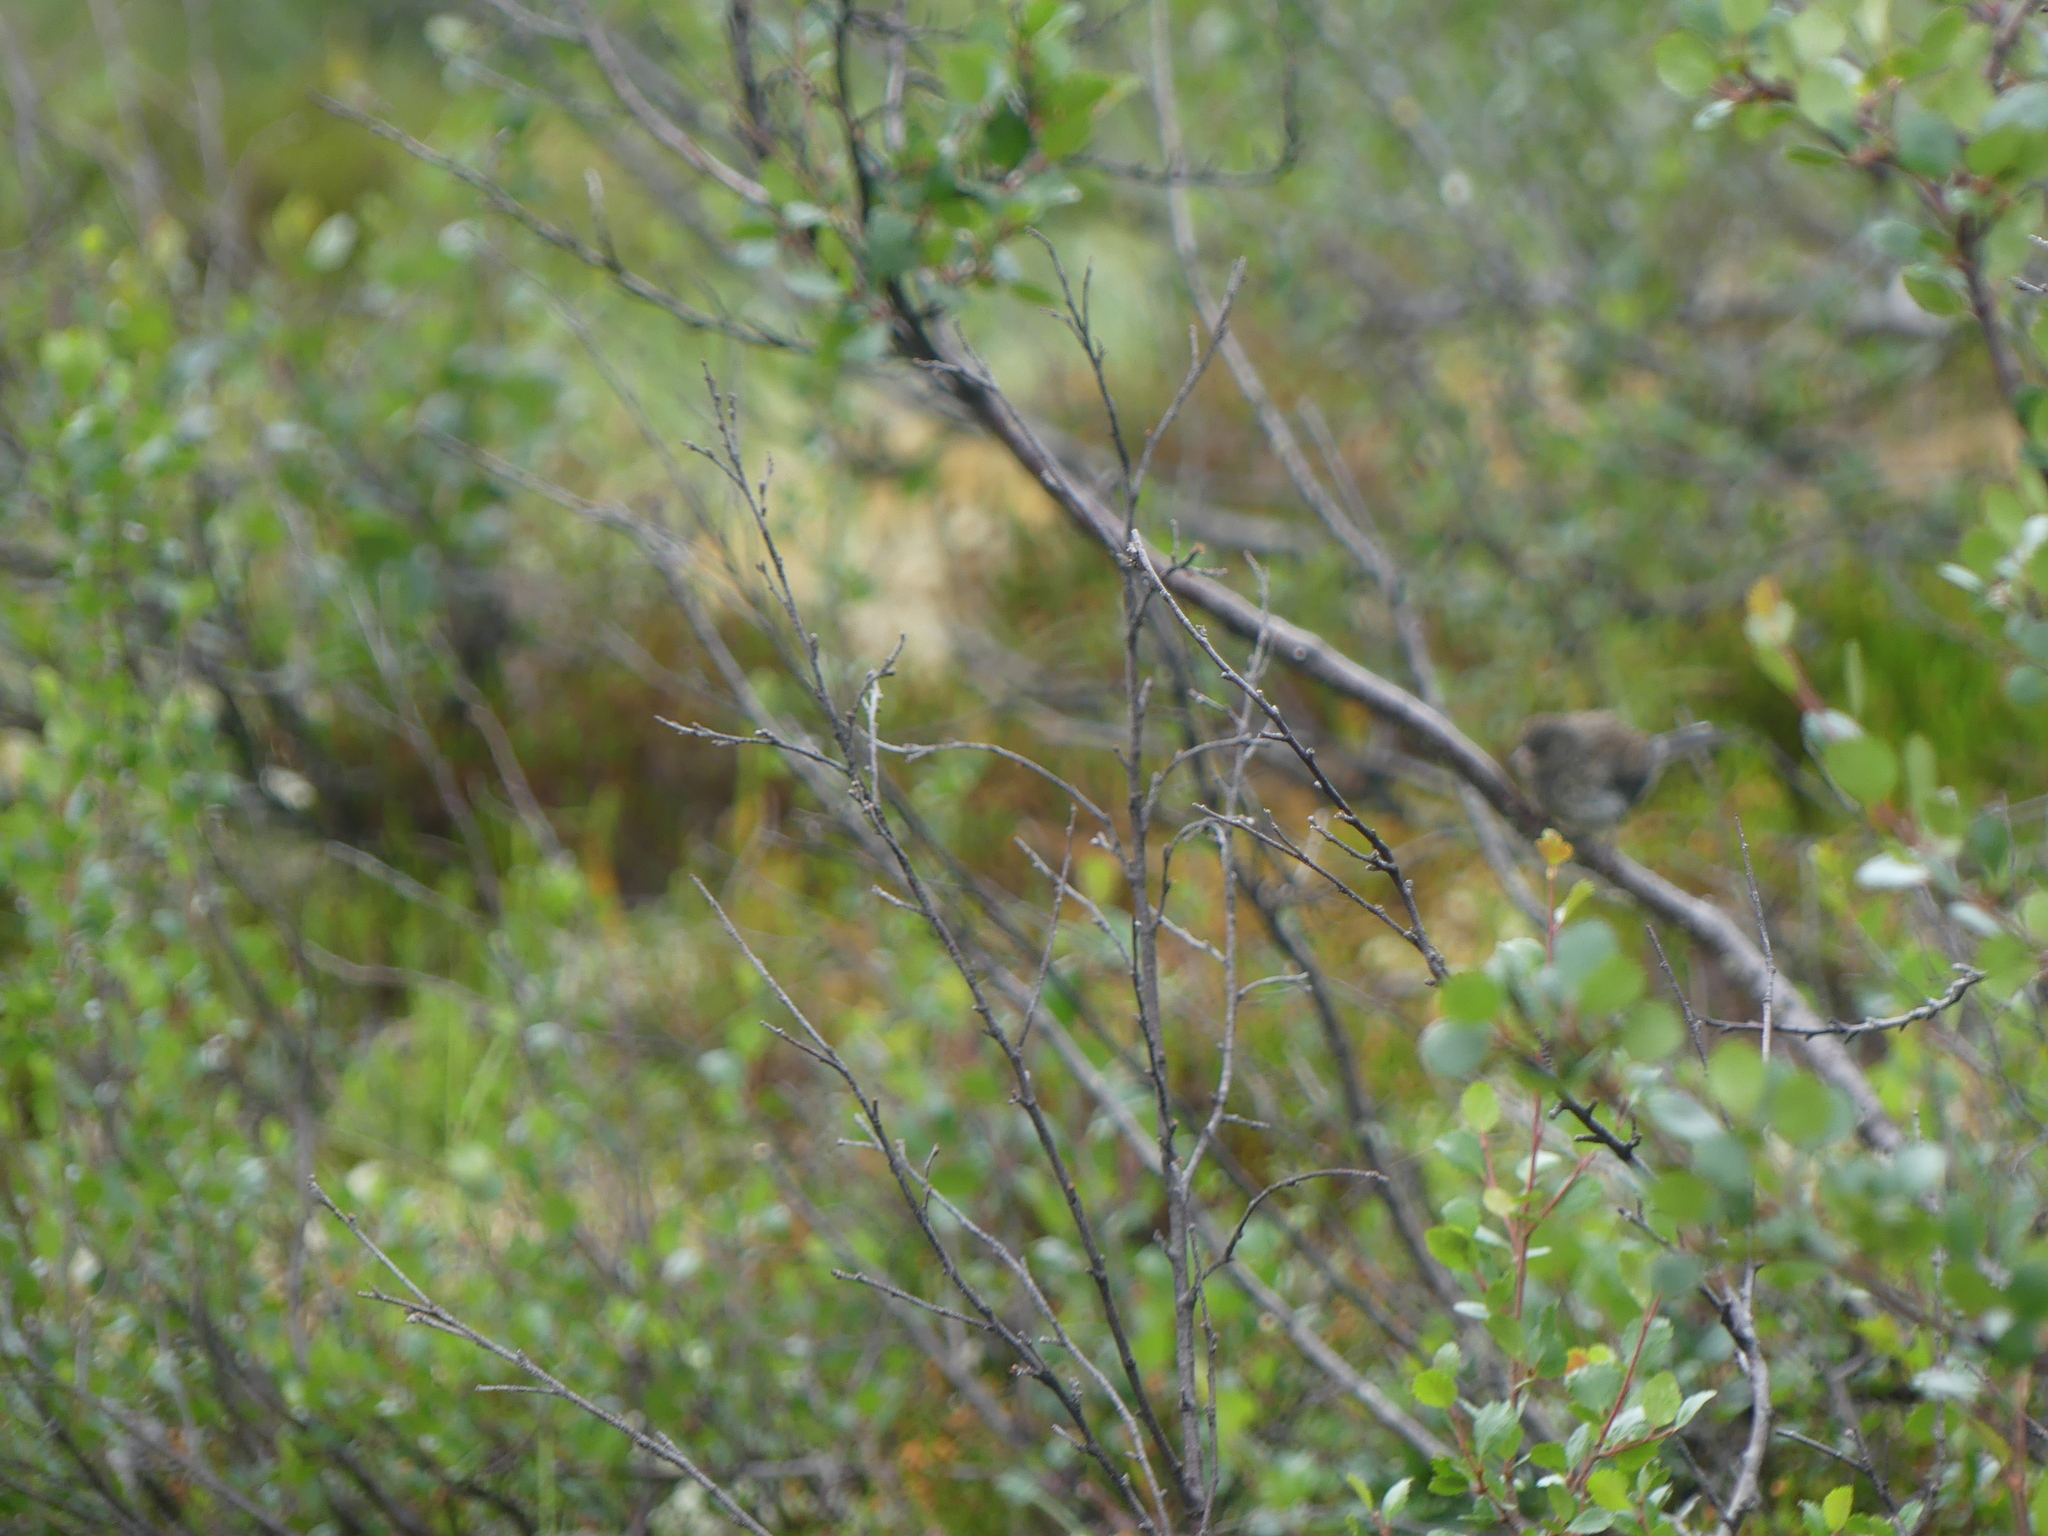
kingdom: Animalia
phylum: Chordata
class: Aves
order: Passeriformes
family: Passerellidae
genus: Junco
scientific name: Junco hyemalis
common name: Dark-eyed junco
